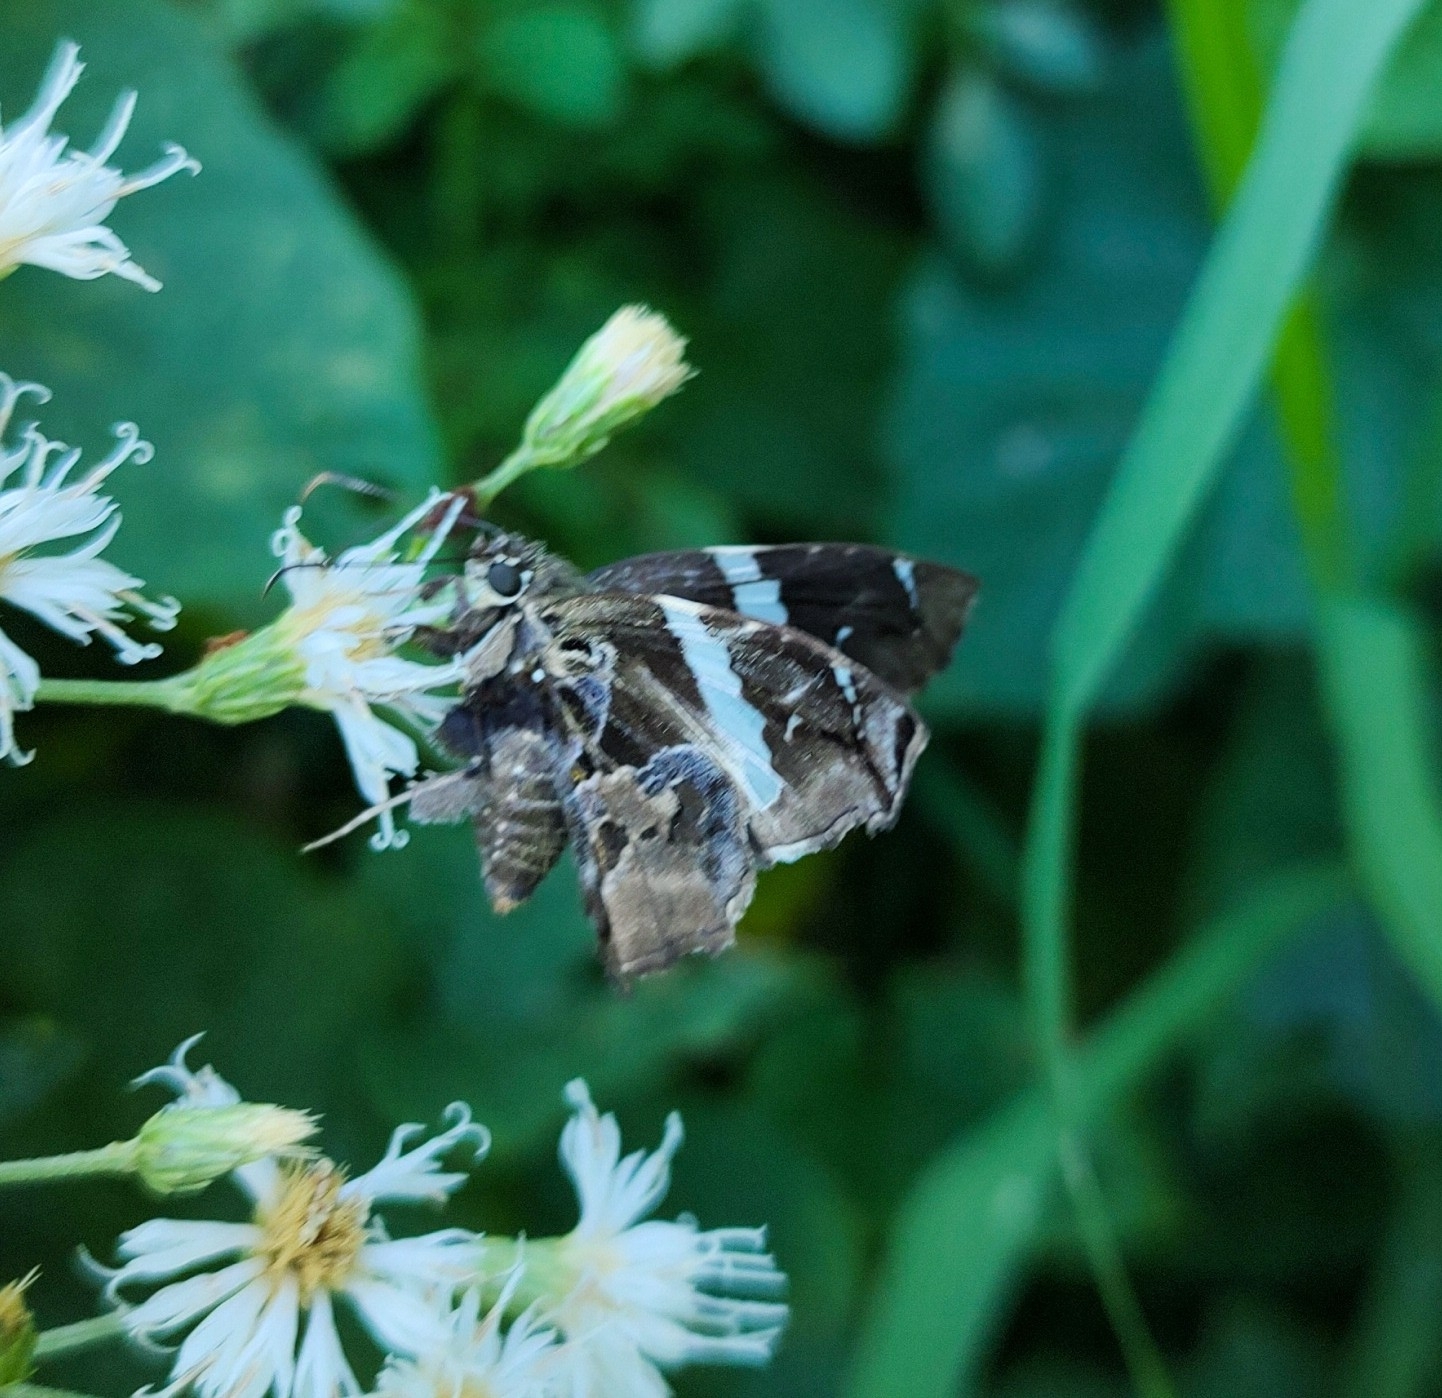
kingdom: Animalia
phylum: Arthropoda
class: Insecta
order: Lepidoptera
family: Hesperiidae
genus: Spathilepia
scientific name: Spathilepia clonius
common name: Falcate skipper
